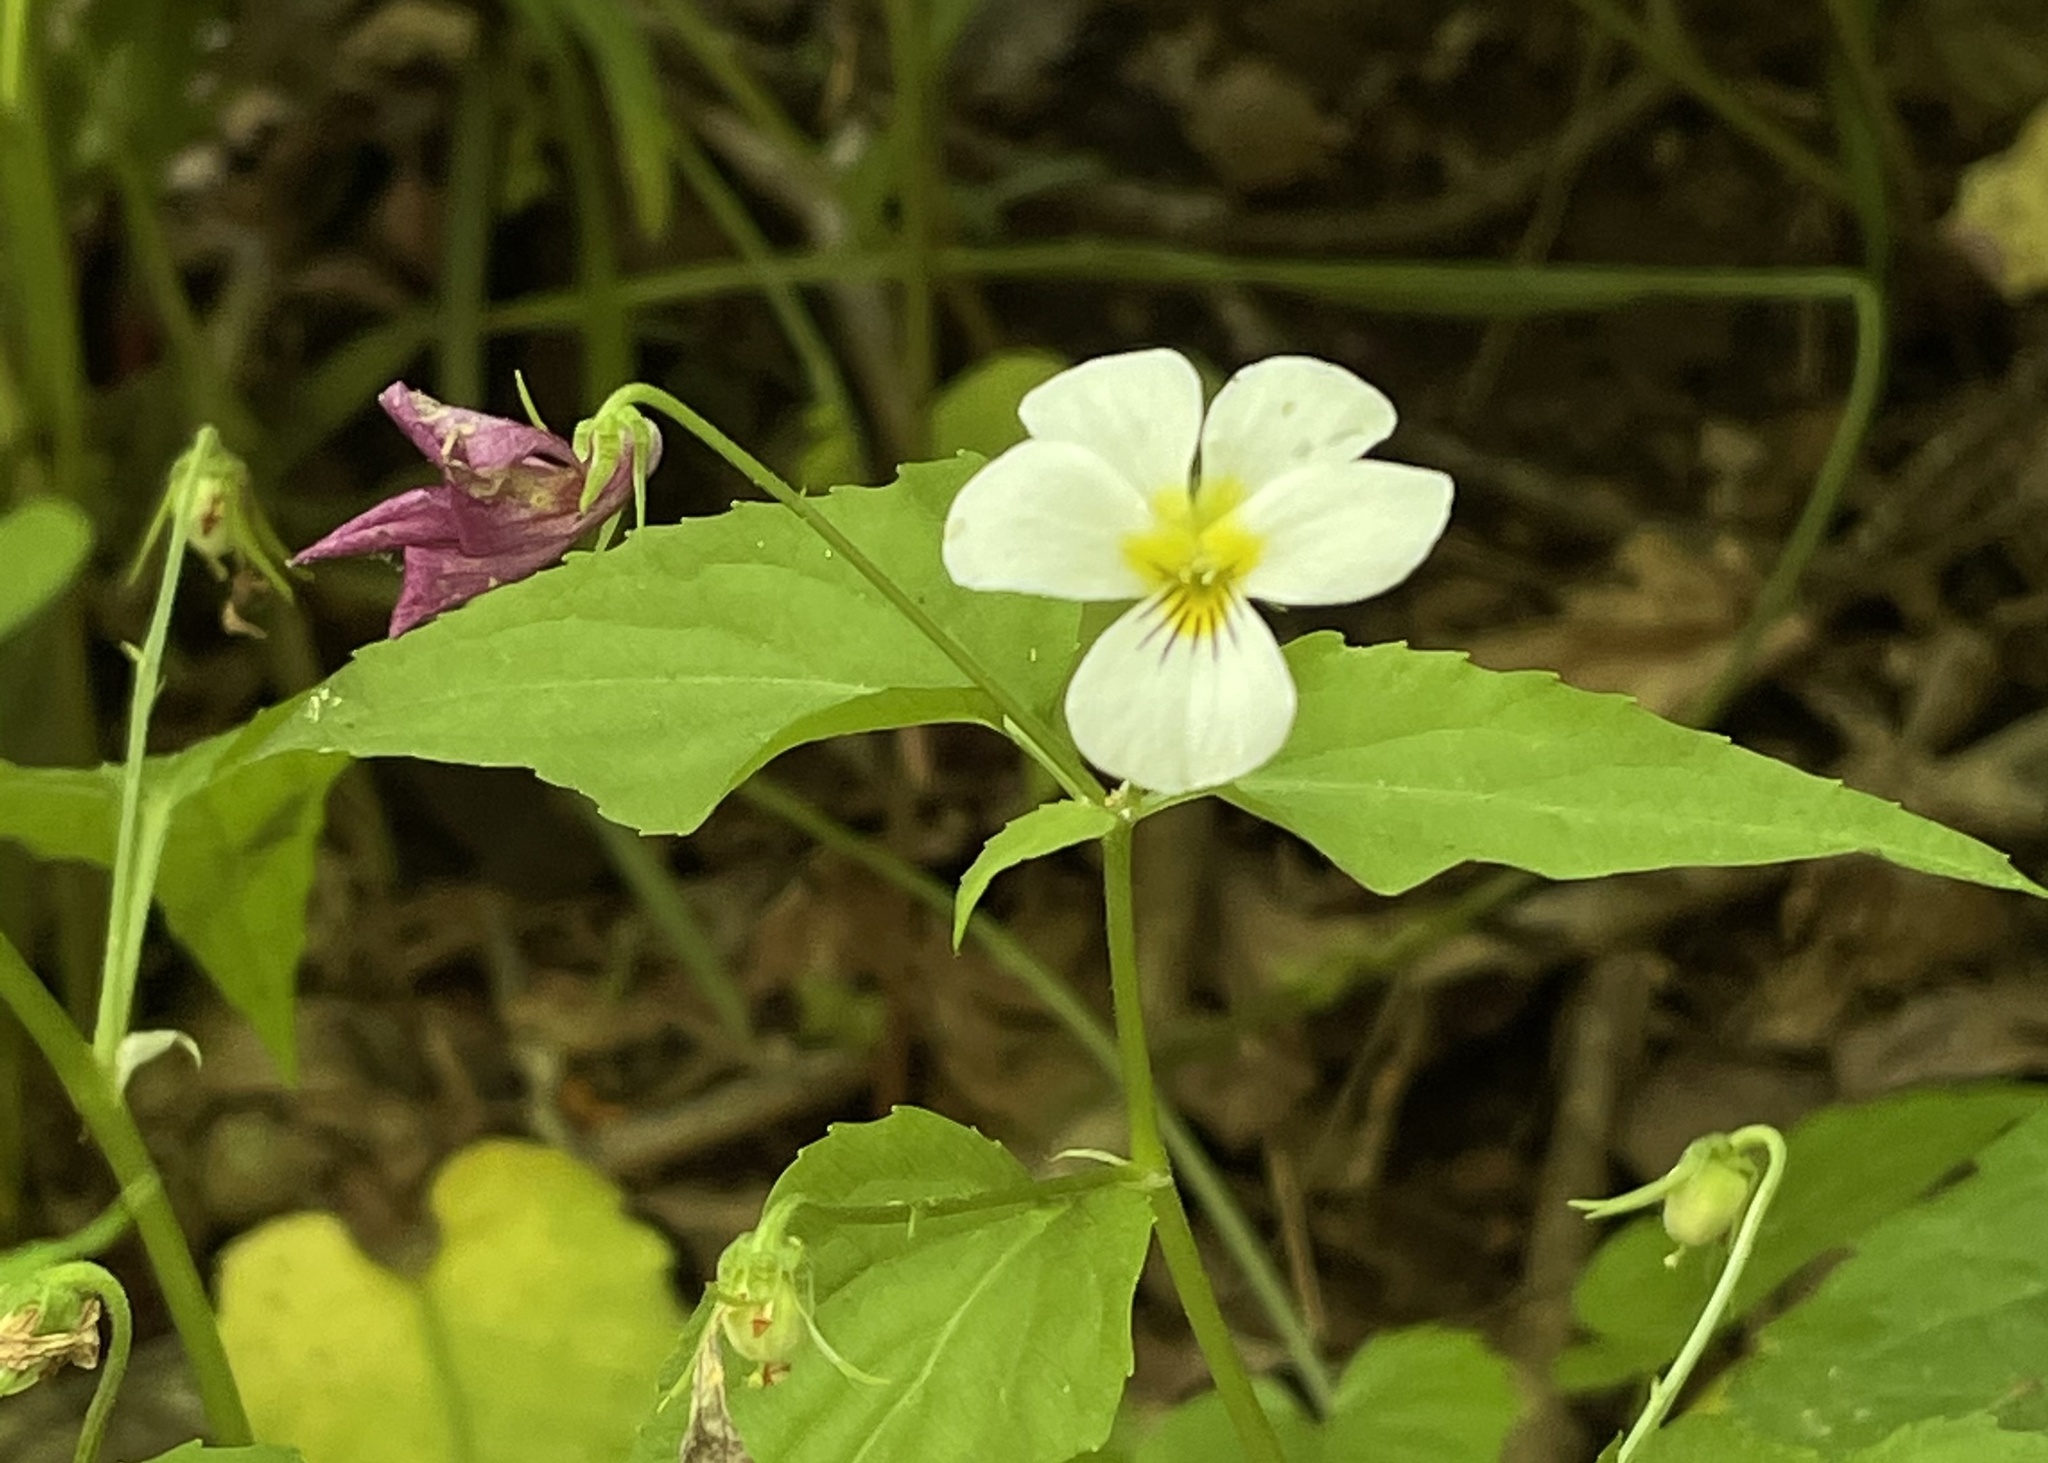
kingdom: Plantae
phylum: Tracheophyta
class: Magnoliopsida
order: Malpighiales
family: Violaceae
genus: Viola
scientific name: Viola canadensis
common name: Canada violet
